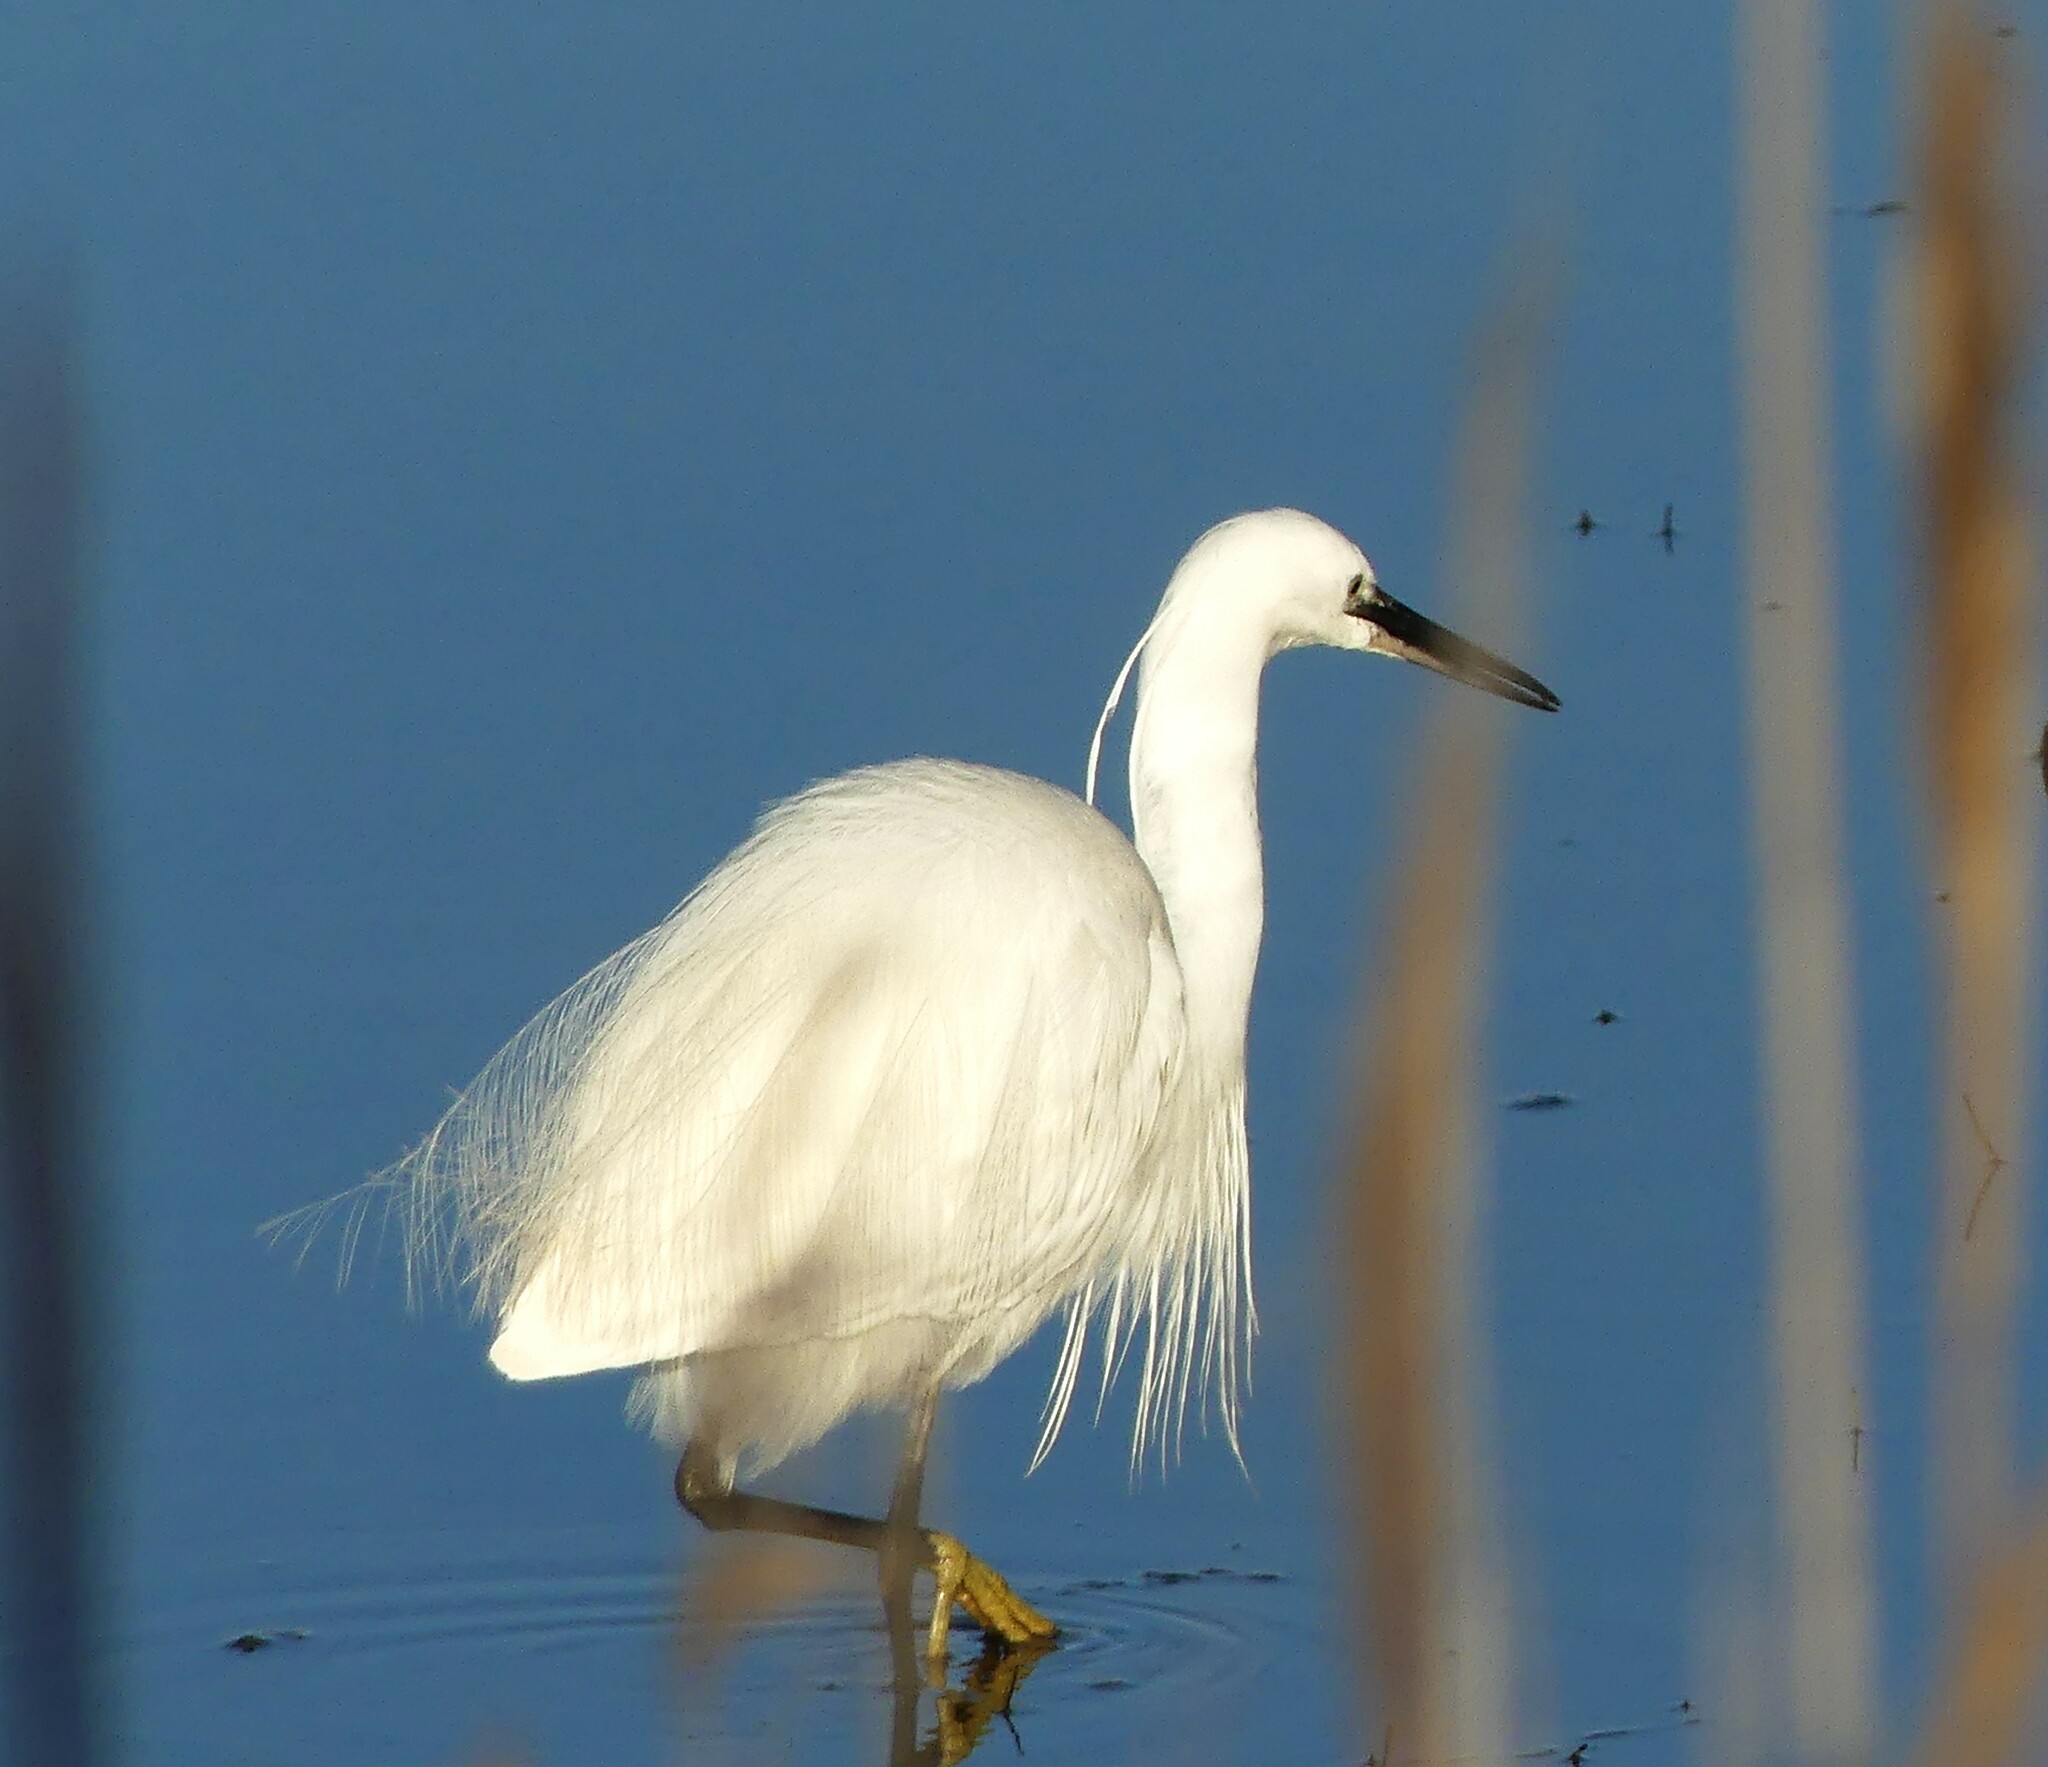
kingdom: Animalia
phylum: Chordata
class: Aves
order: Pelecaniformes
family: Ardeidae
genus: Egretta
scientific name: Egretta garzetta
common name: Little egret
